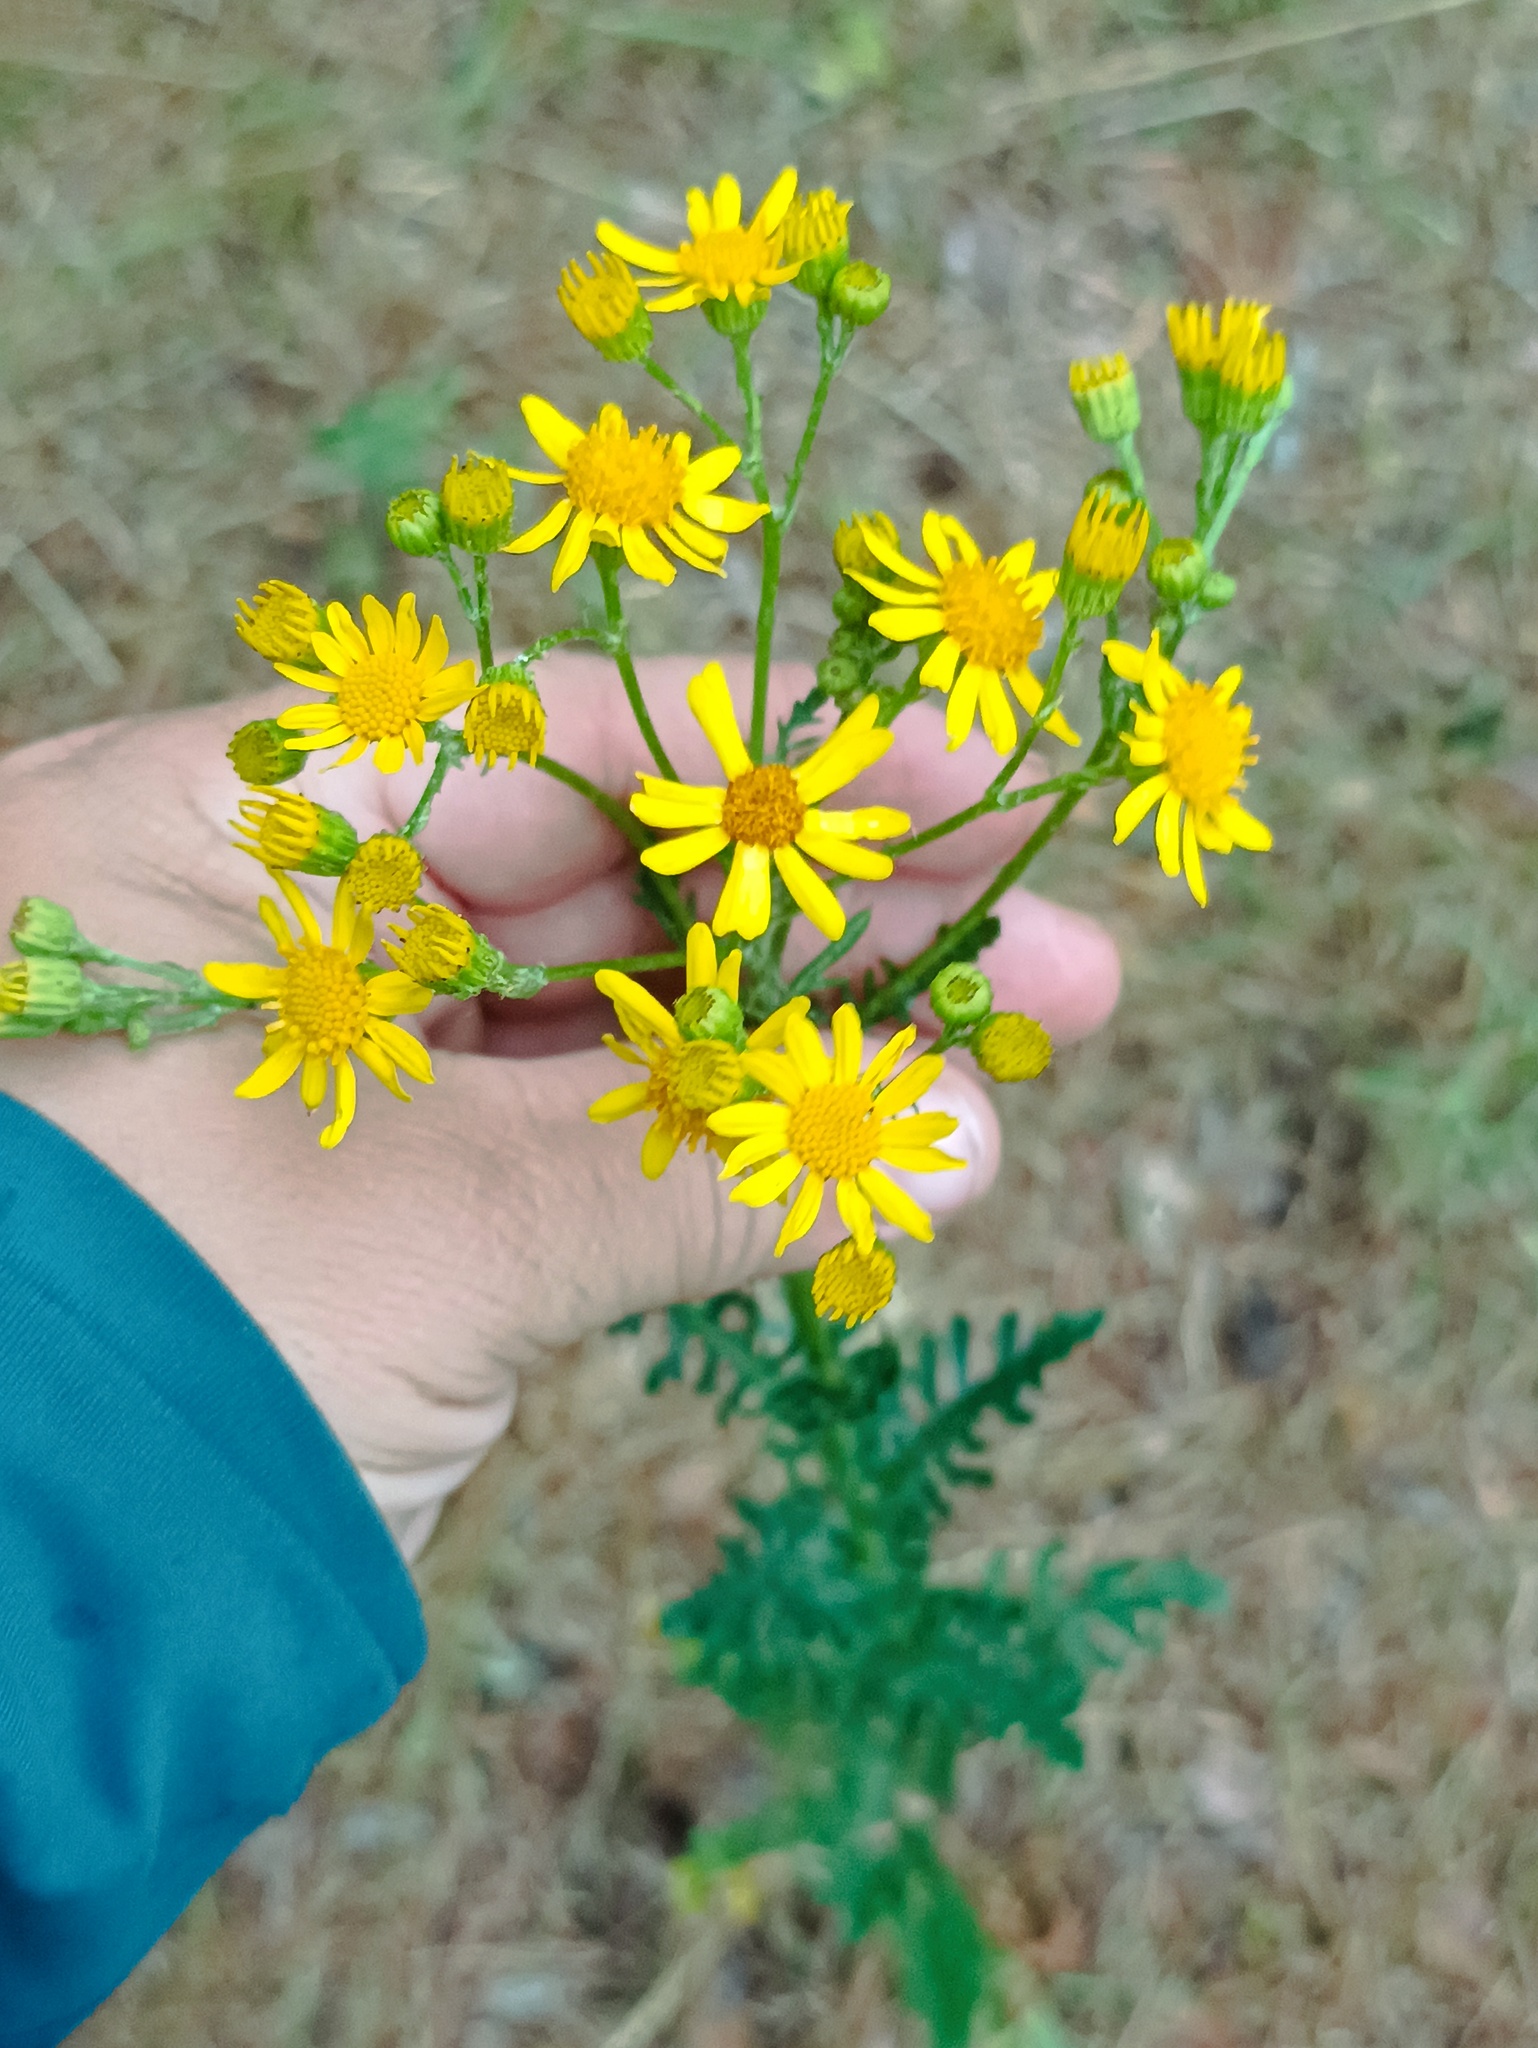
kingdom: Plantae
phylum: Tracheophyta
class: Magnoliopsida
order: Asterales
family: Asteraceae
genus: Jacobaea
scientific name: Jacobaea vulgaris
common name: Stinking willie
